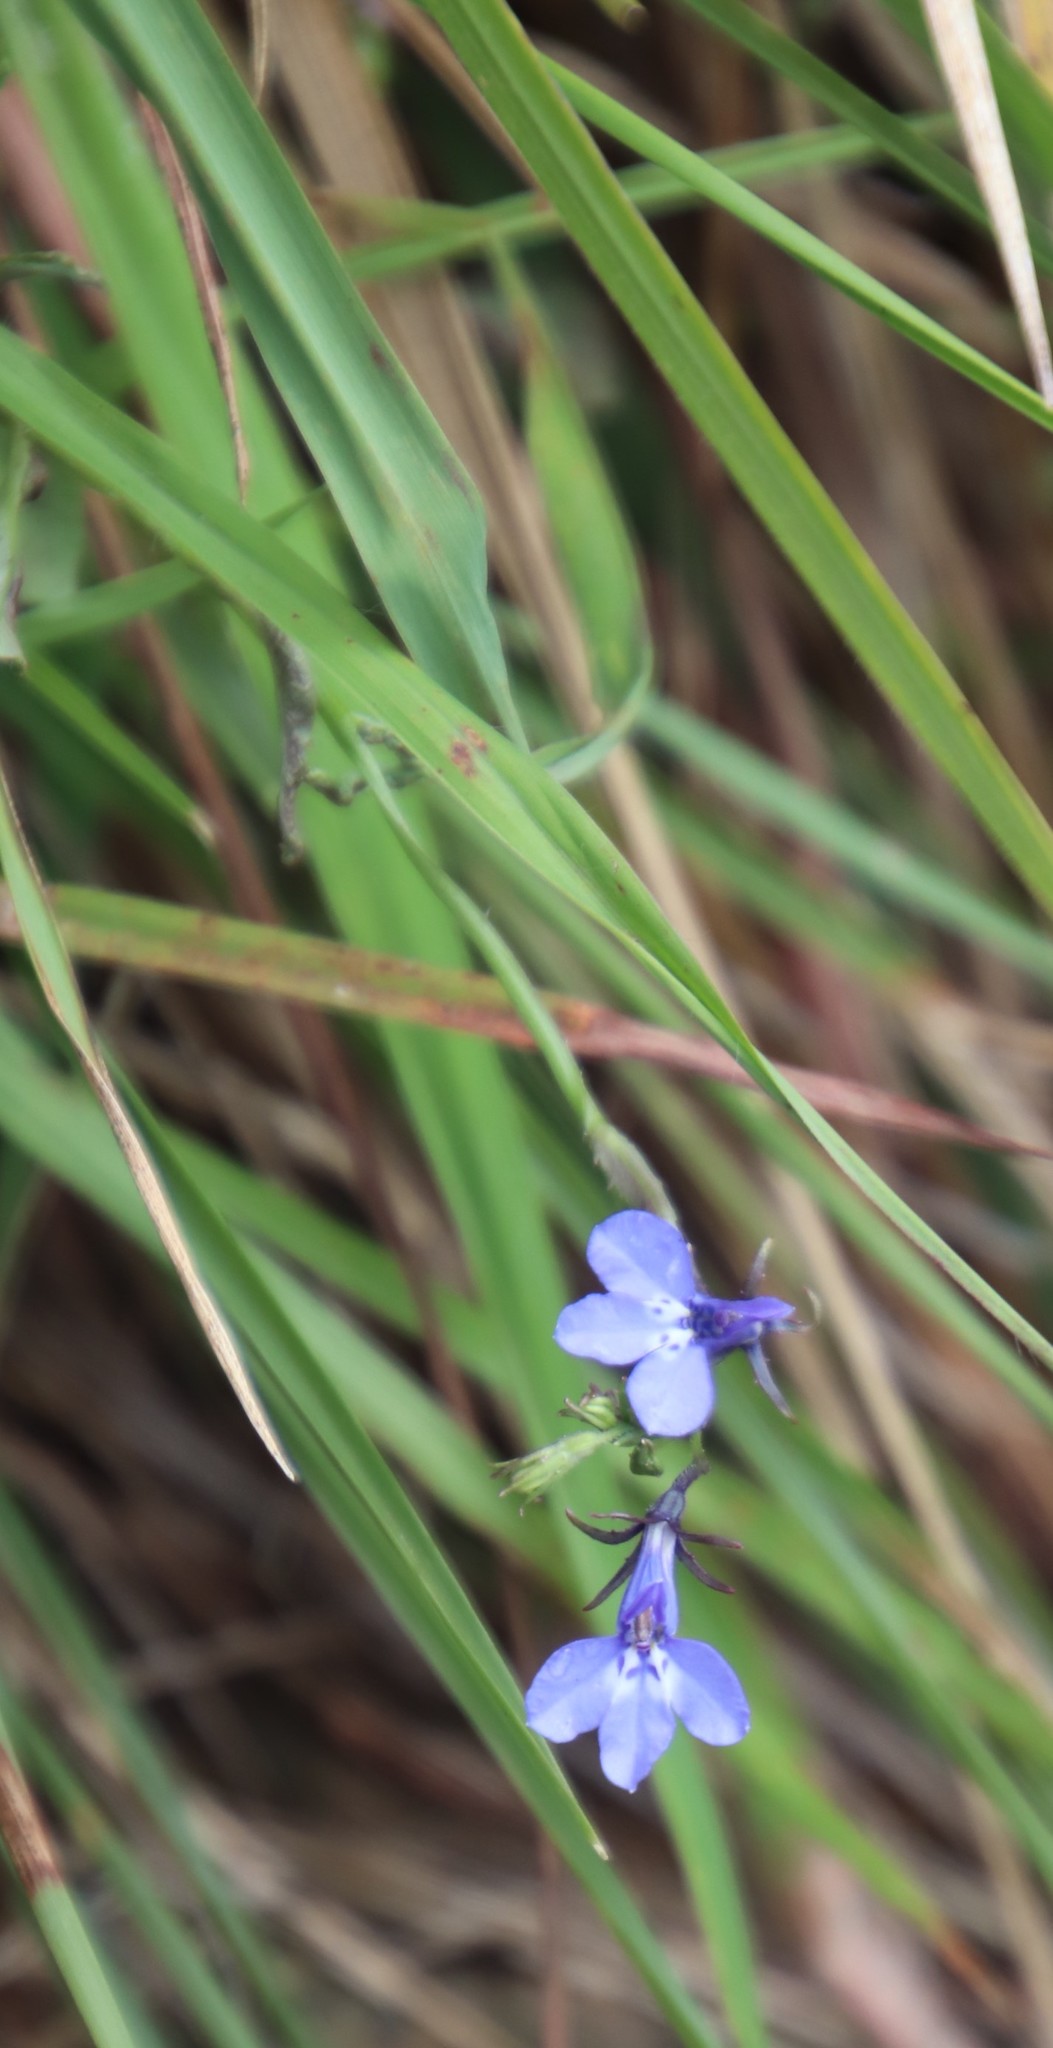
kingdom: Plantae
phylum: Tracheophyta
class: Magnoliopsida
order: Asterales
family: Campanulaceae
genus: Lobelia
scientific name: Lobelia flaccida
